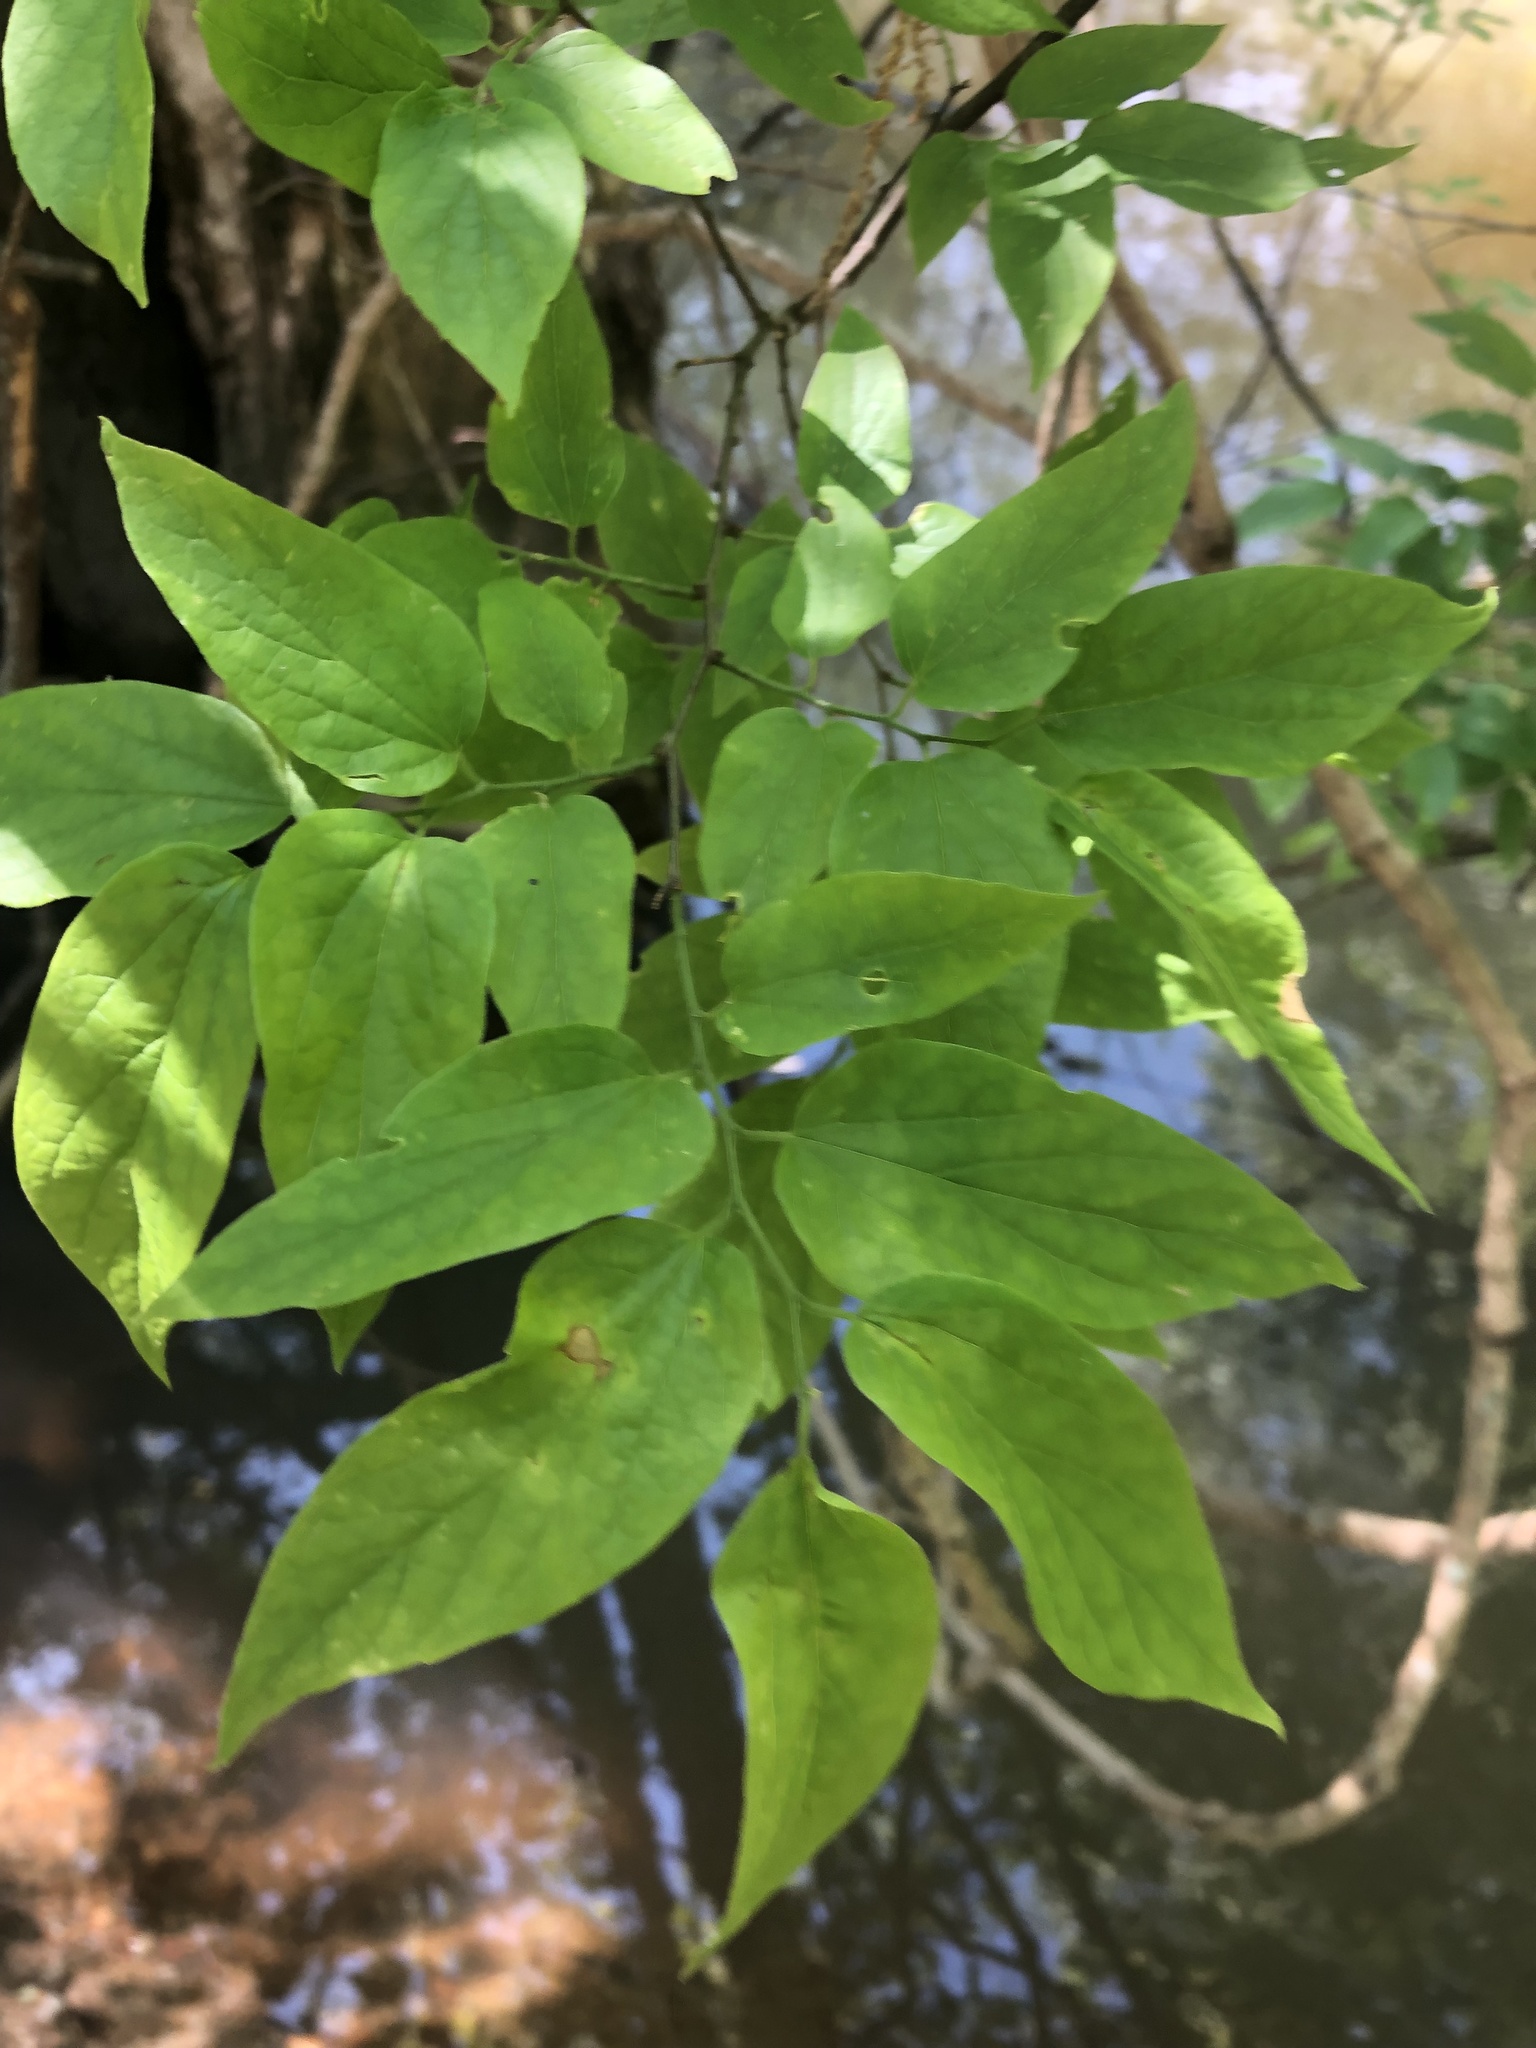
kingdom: Plantae
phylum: Tracheophyta
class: Magnoliopsida
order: Rosales
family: Cannabaceae
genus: Celtis
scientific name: Celtis laevigata
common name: Sugarberry
